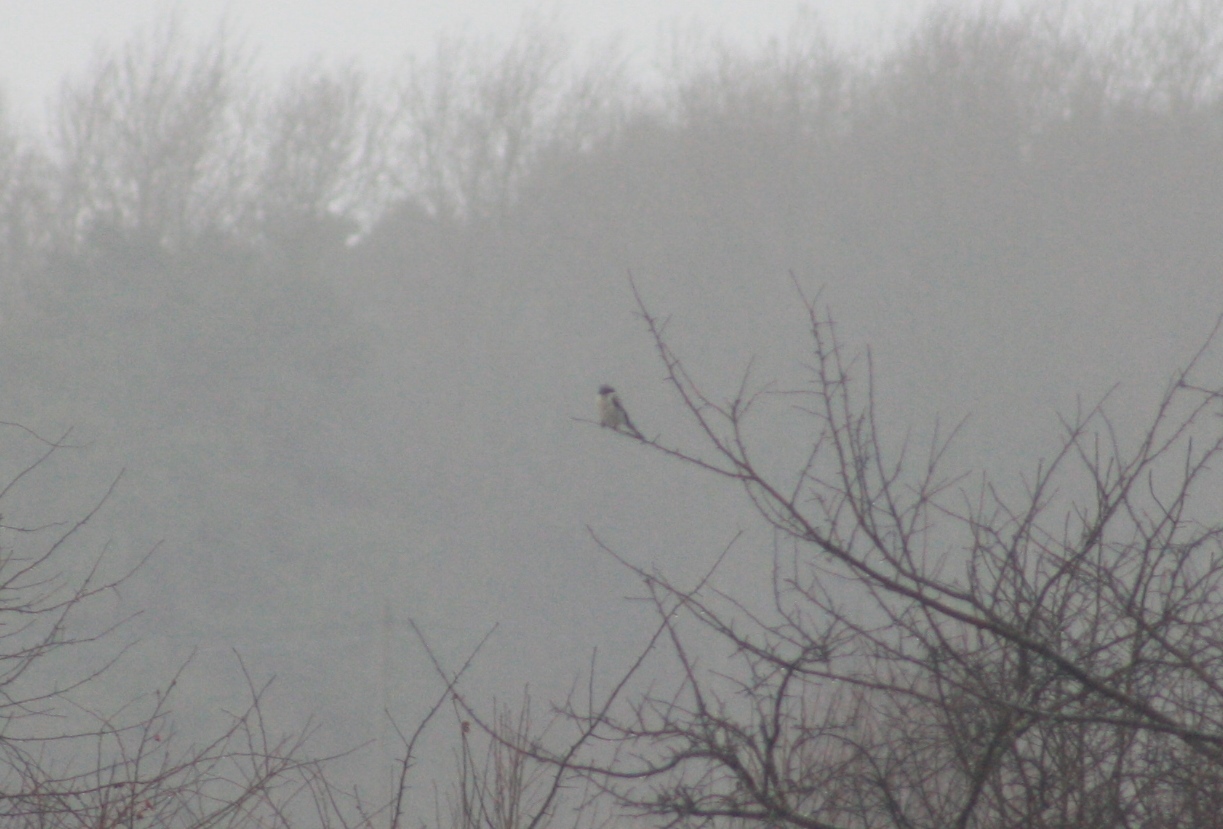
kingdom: Animalia
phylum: Chordata
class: Aves
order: Passeriformes
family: Laniidae
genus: Lanius
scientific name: Lanius excubitor
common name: Great grey shrike
